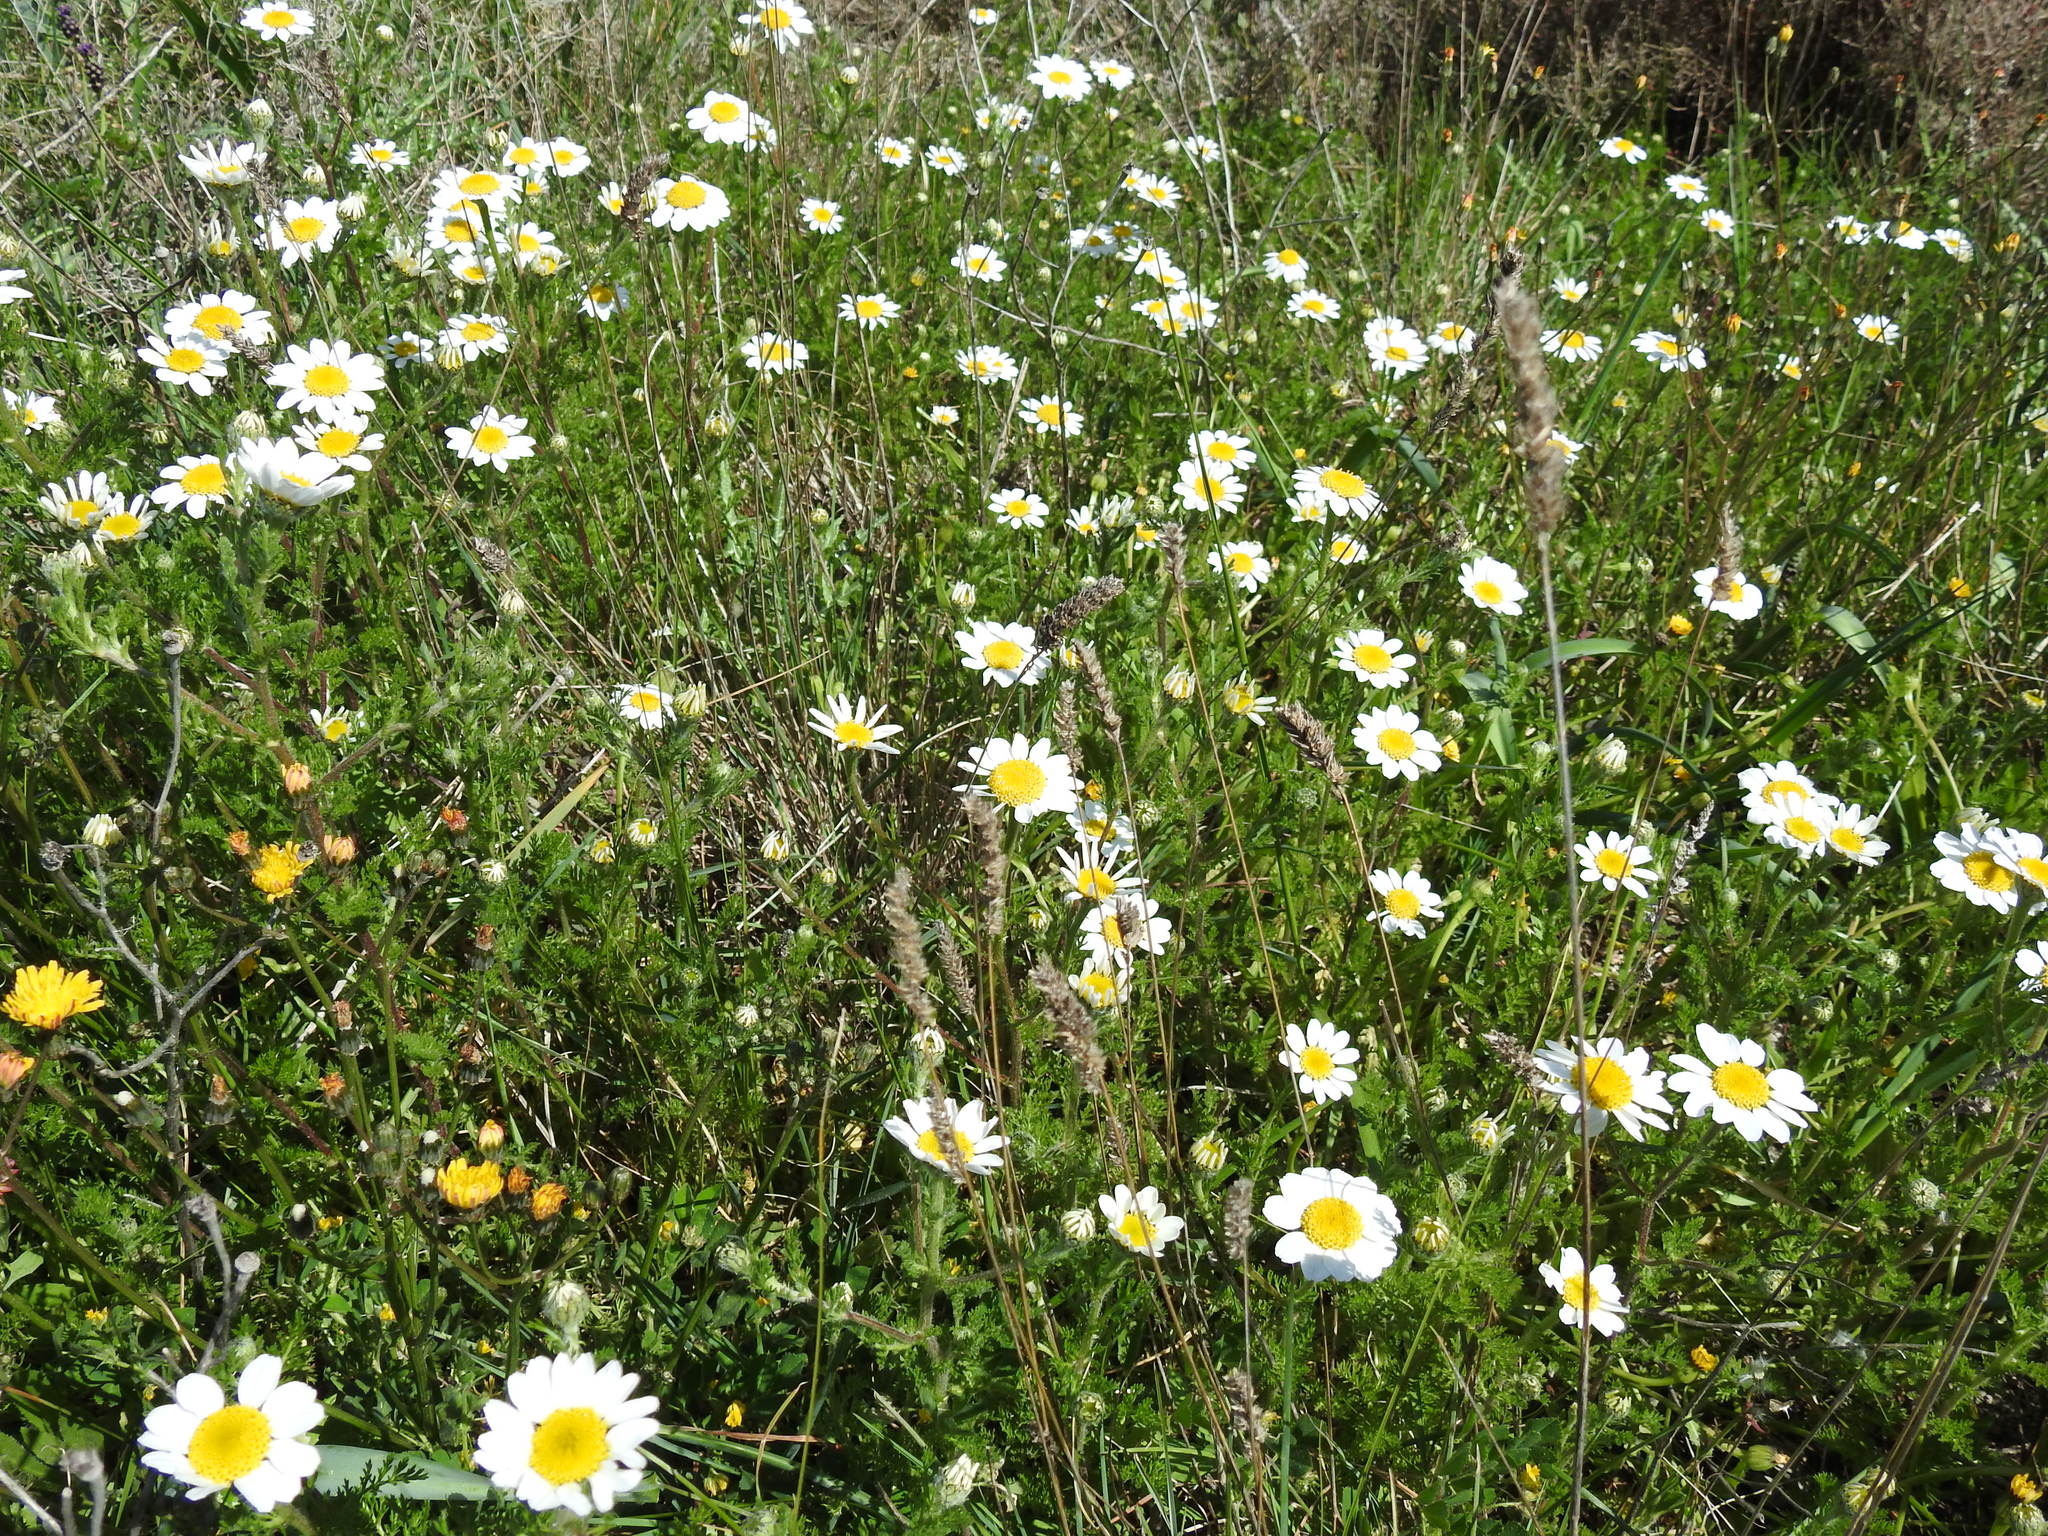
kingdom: Plantae
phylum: Tracheophyta
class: Magnoliopsida
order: Asterales
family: Asteraceae
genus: Anacyclus
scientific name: Anacyclus clavatus
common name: Whitebuttons
